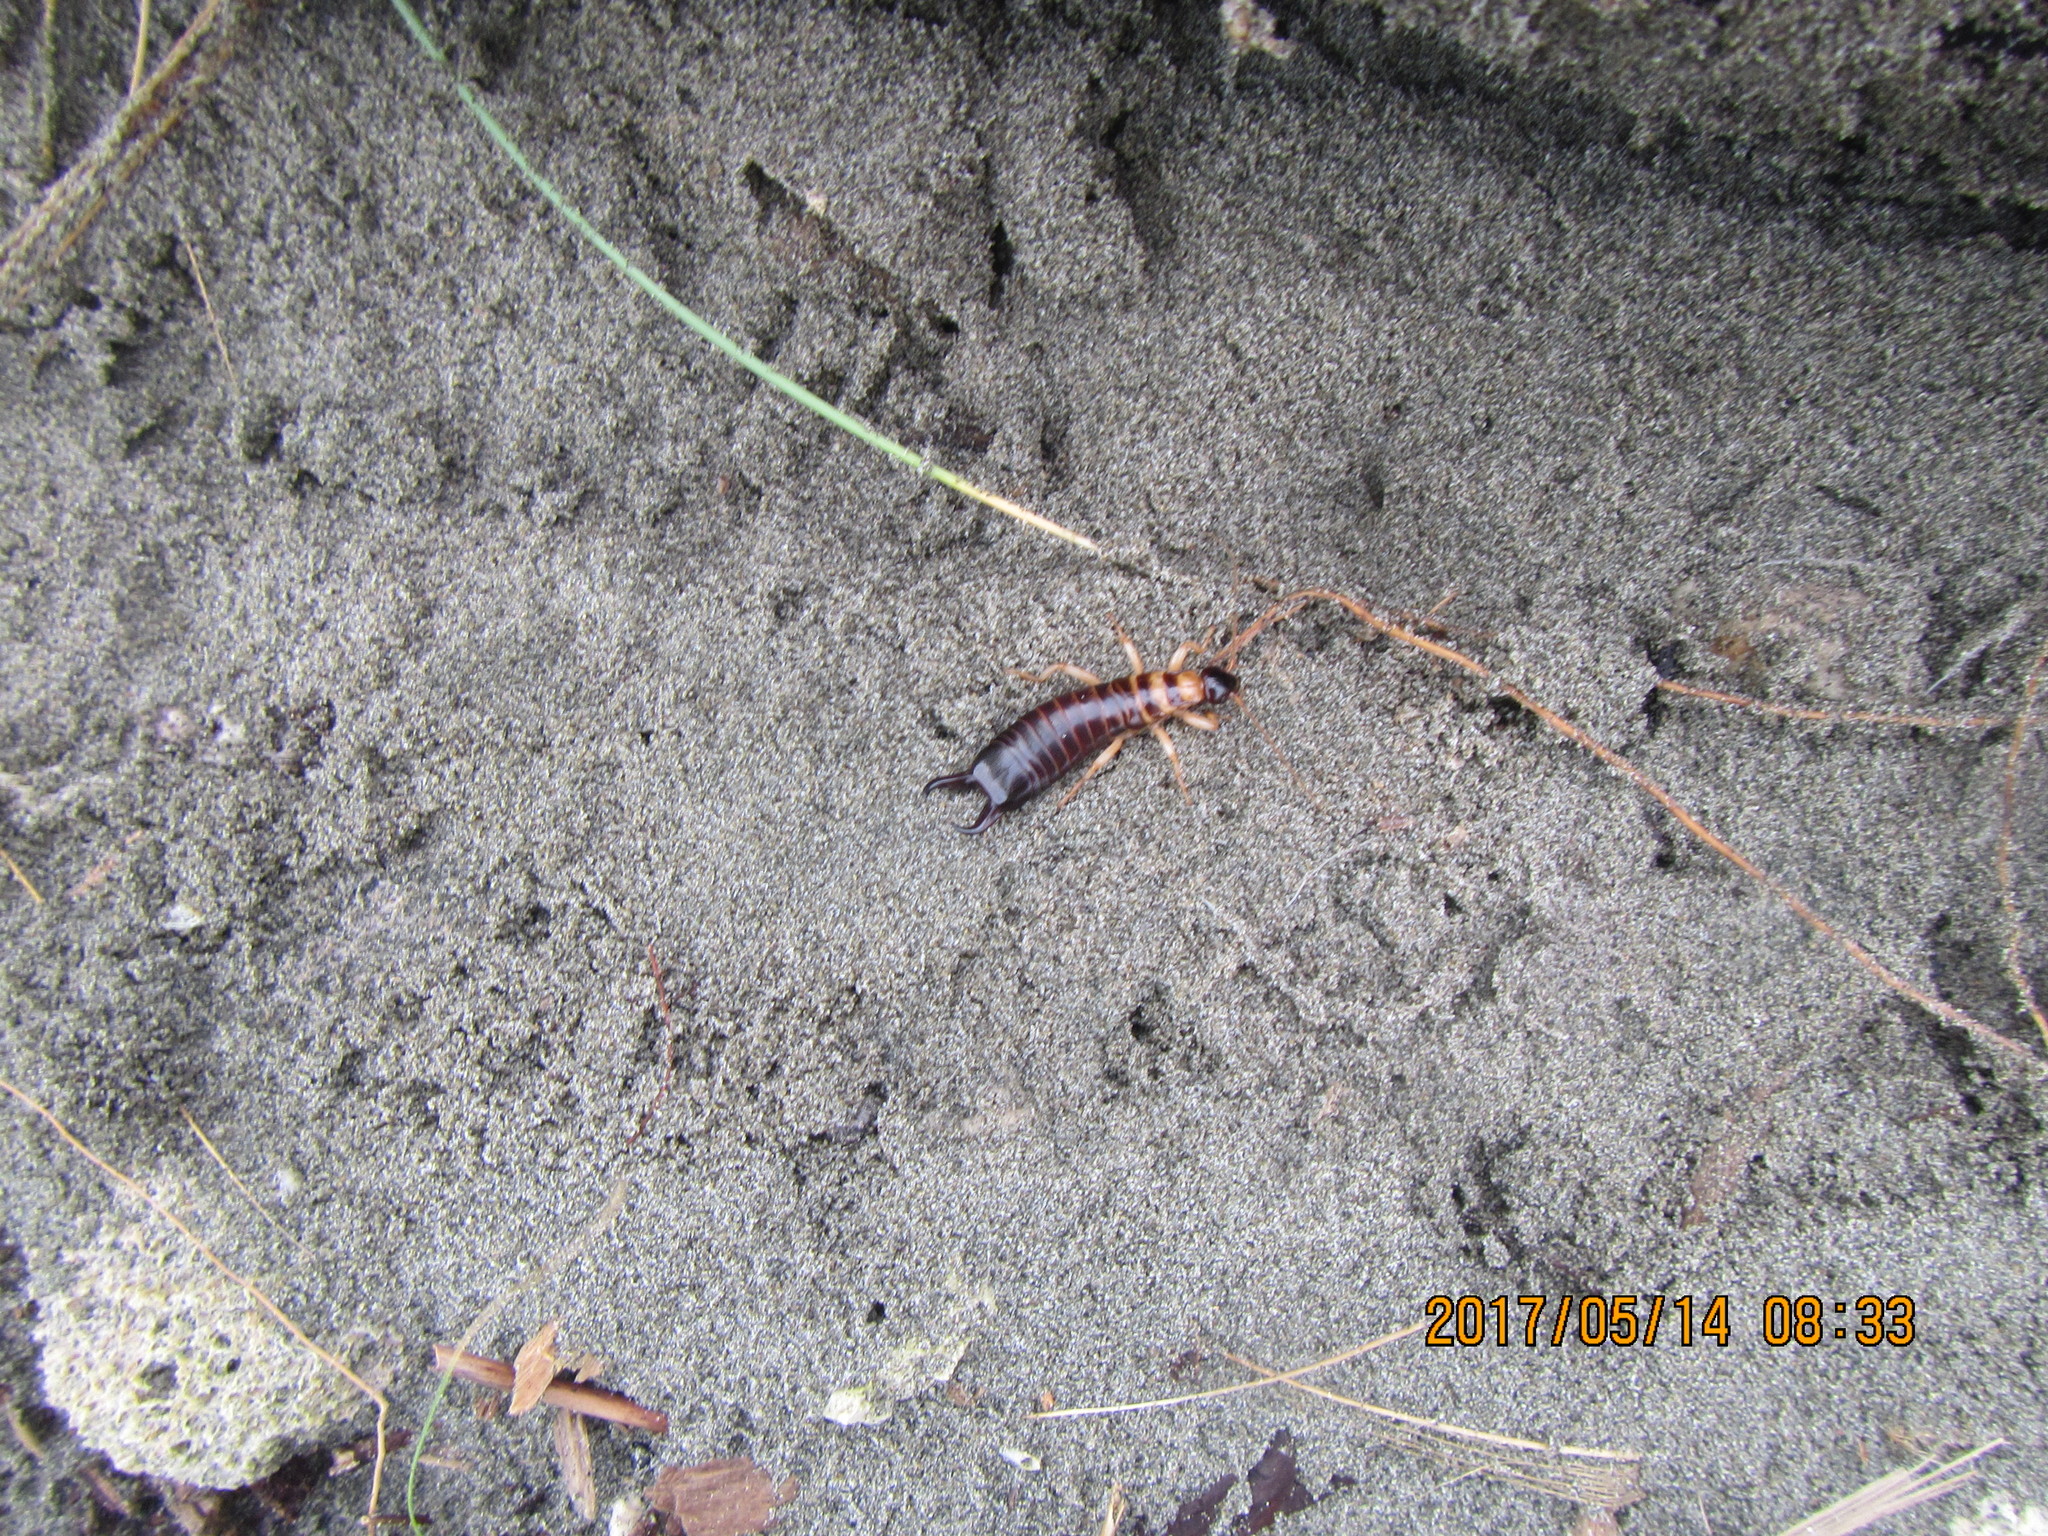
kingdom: Animalia
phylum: Arthropoda
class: Insecta
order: Dermaptera
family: Anisolabididae
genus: Anisolabis
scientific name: Anisolabis littorea
